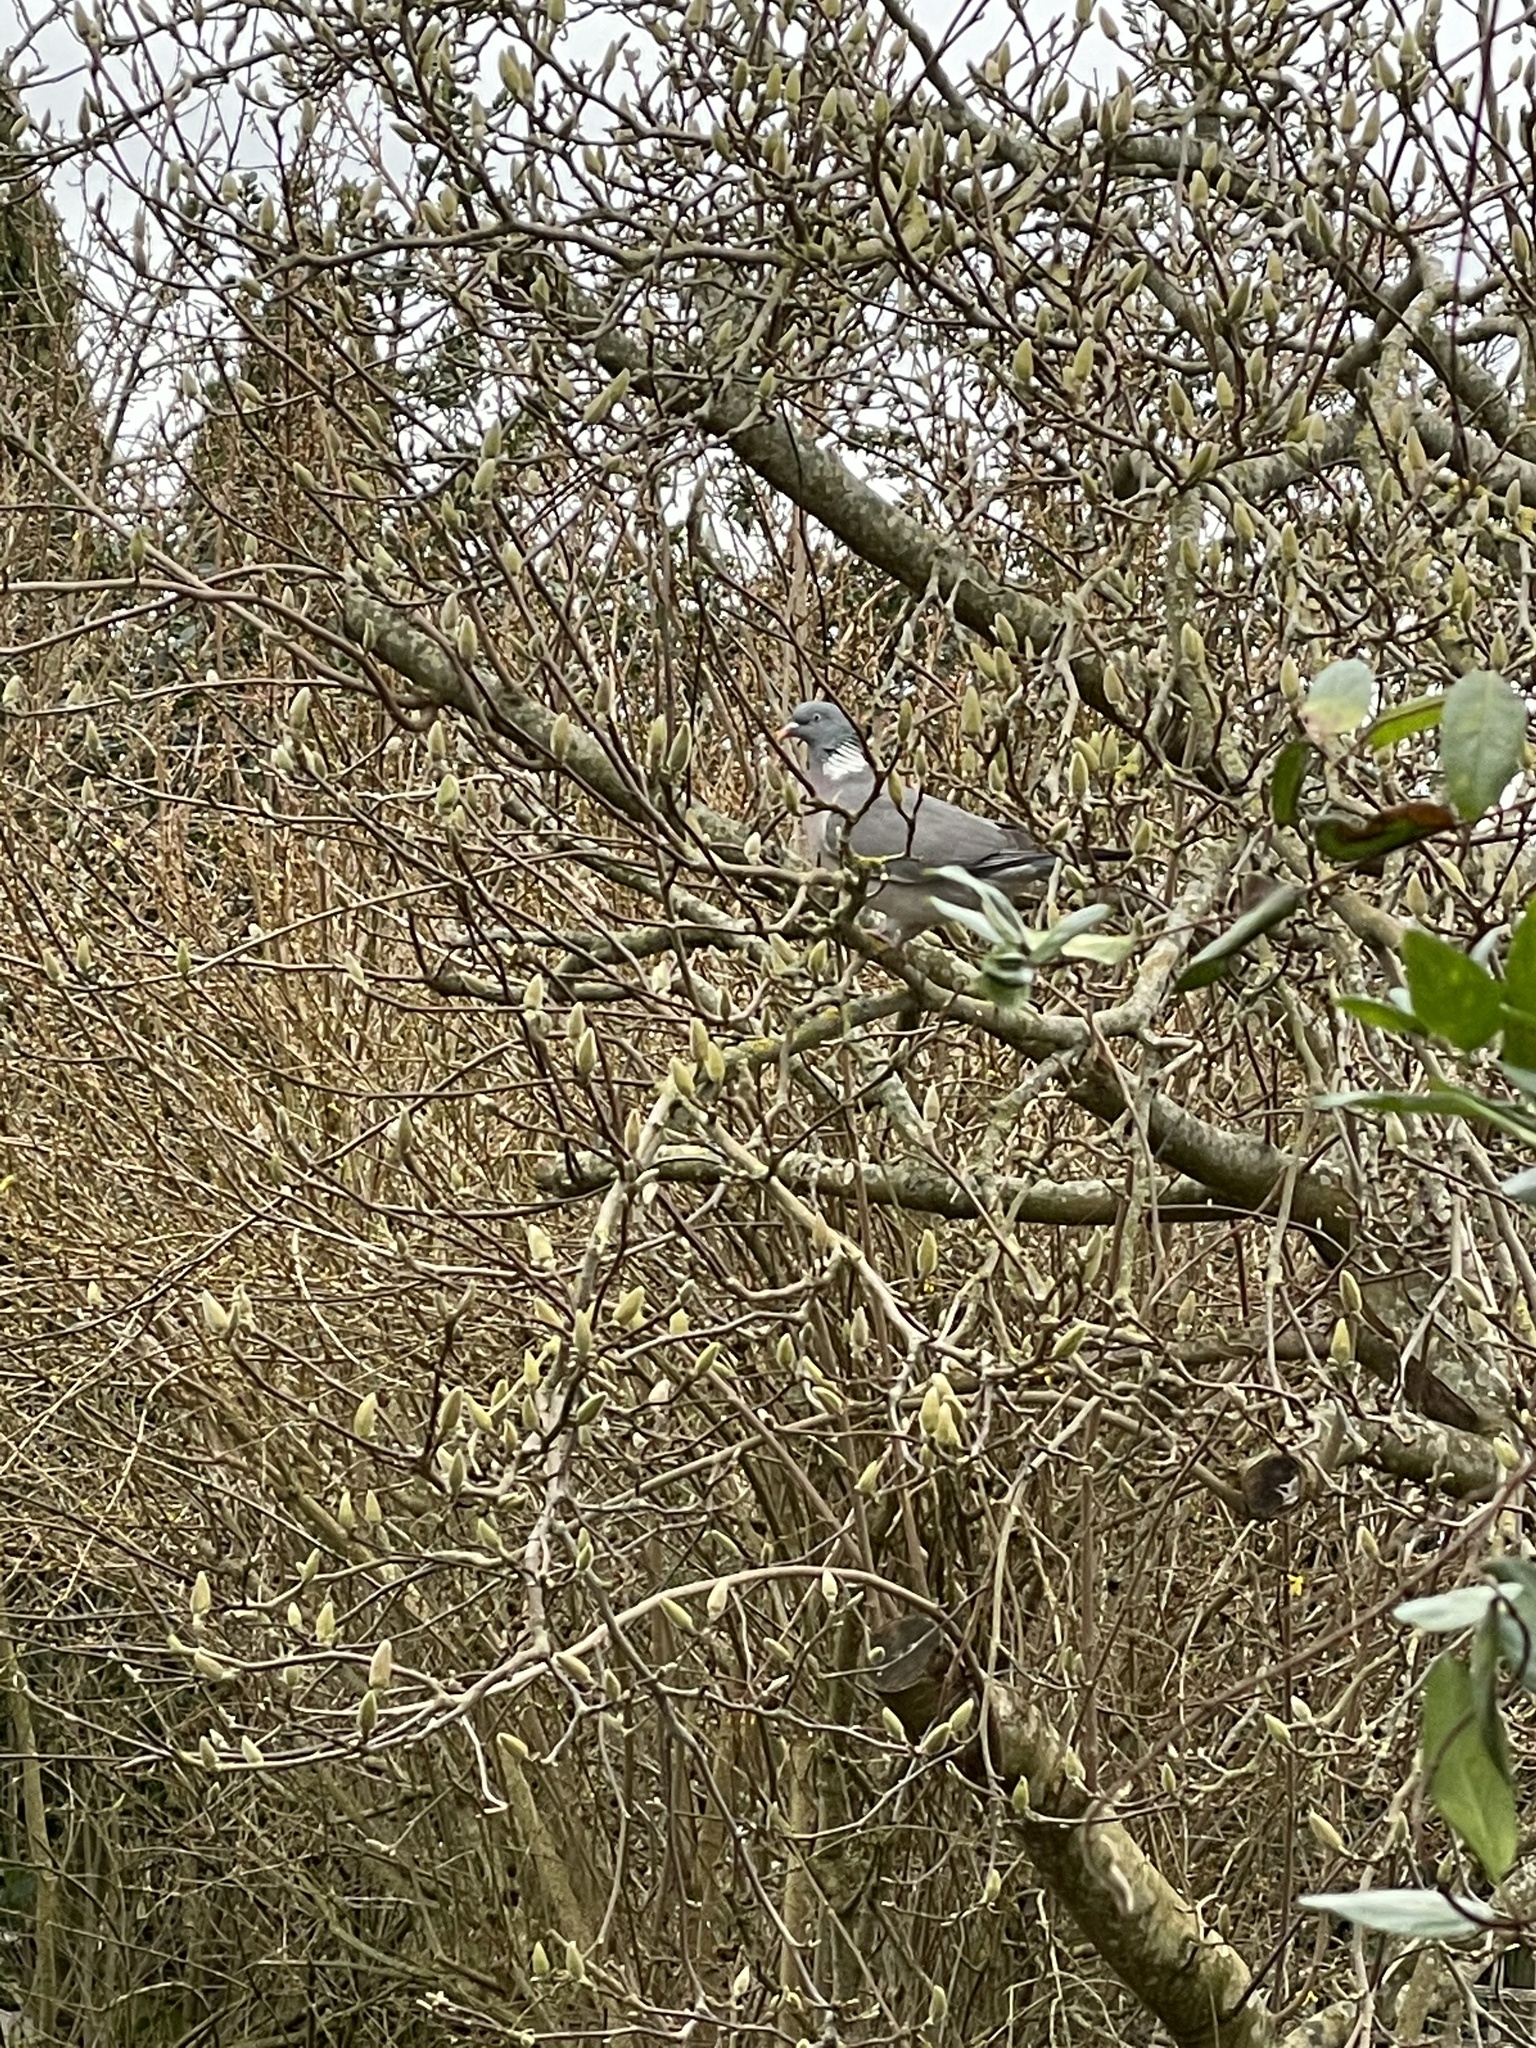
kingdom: Animalia
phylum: Chordata
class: Aves
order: Columbiformes
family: Columbidae
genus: Columba
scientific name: Columba palumbus
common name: Common wood pigeon
